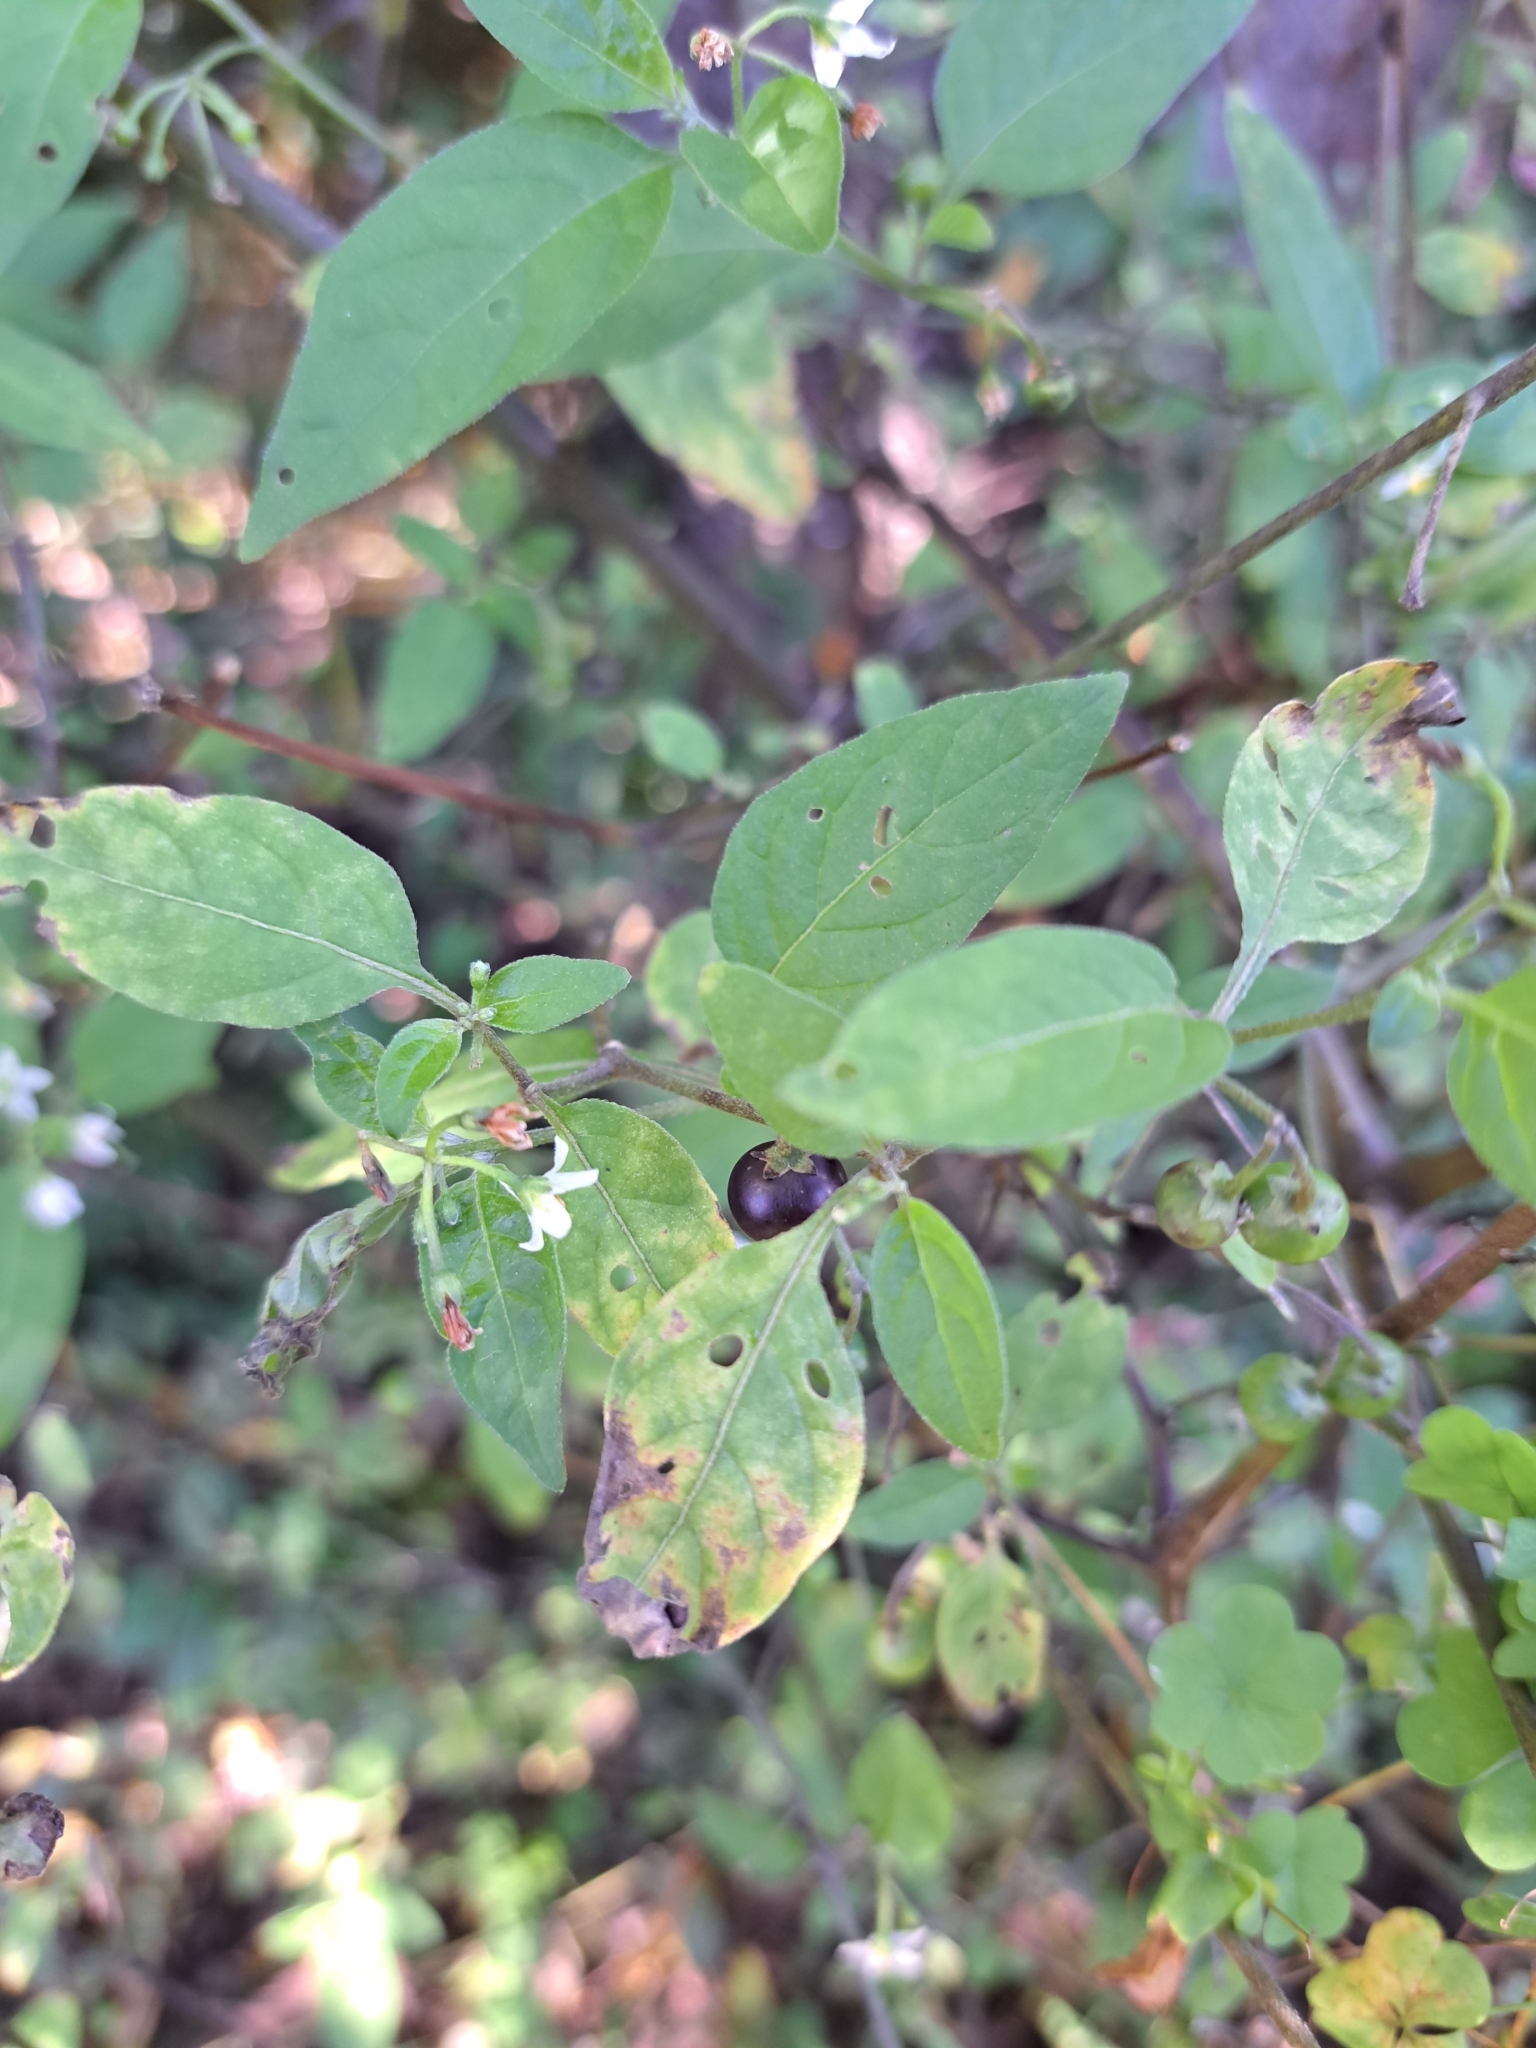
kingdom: Plantae
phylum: Tracheophyta
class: Magnoliopsida
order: Solanales
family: Solanaceae
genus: Solanum
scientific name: Solanum emulans
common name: Eastern black nightshade
